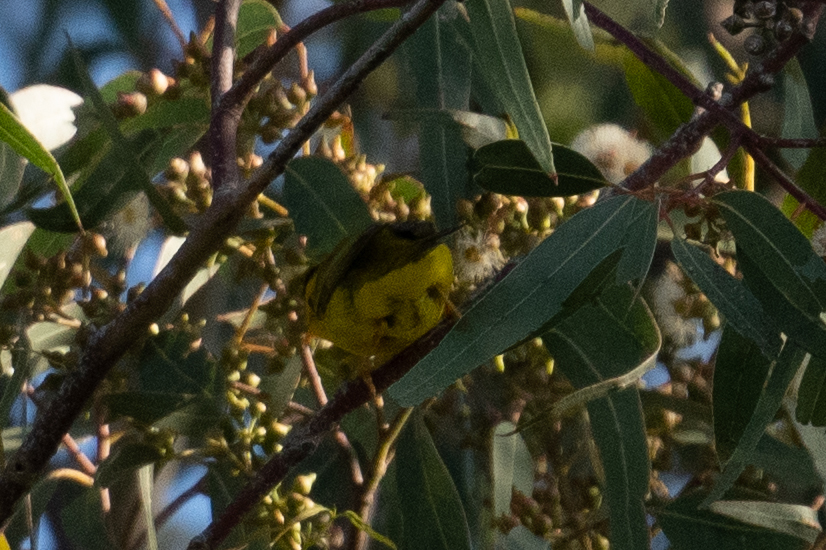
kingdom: Animalia
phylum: Chordata
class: Aves
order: Passeriformes
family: Parulidae
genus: Cardellina
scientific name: Cardellina pusilla
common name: Wilson's warbler
